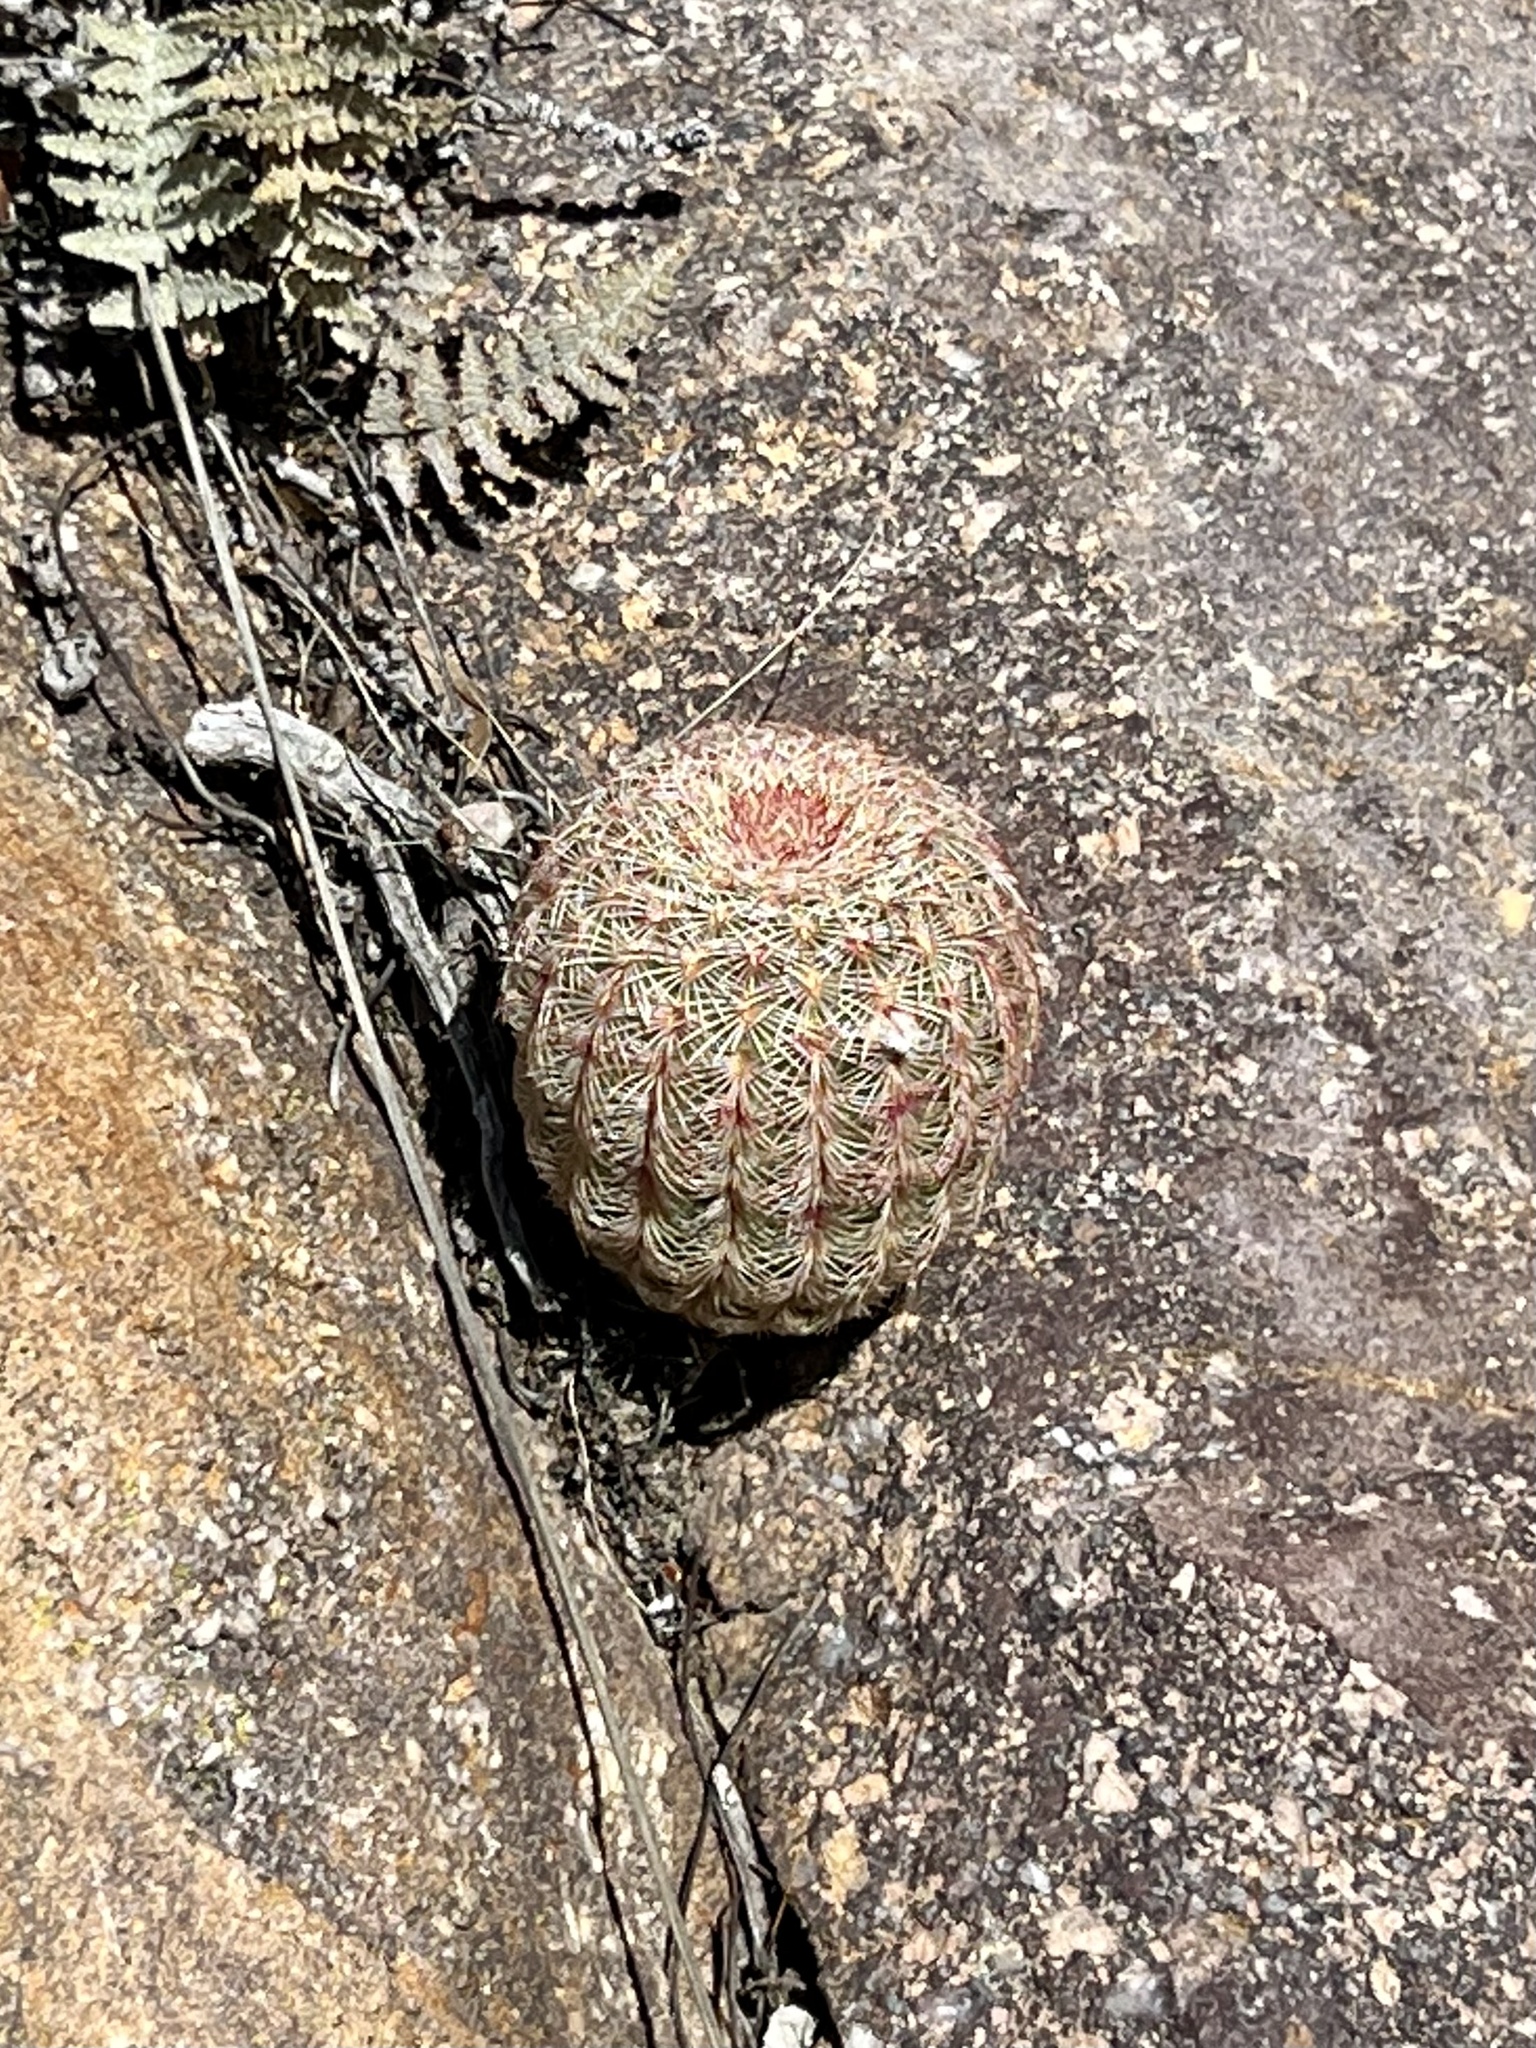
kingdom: Plantae
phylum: Tracheophyta
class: Magnoliopsida
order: Caryophyllales
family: Cactaceae
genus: Echinocereus
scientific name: Echinocereus rigidissimus
